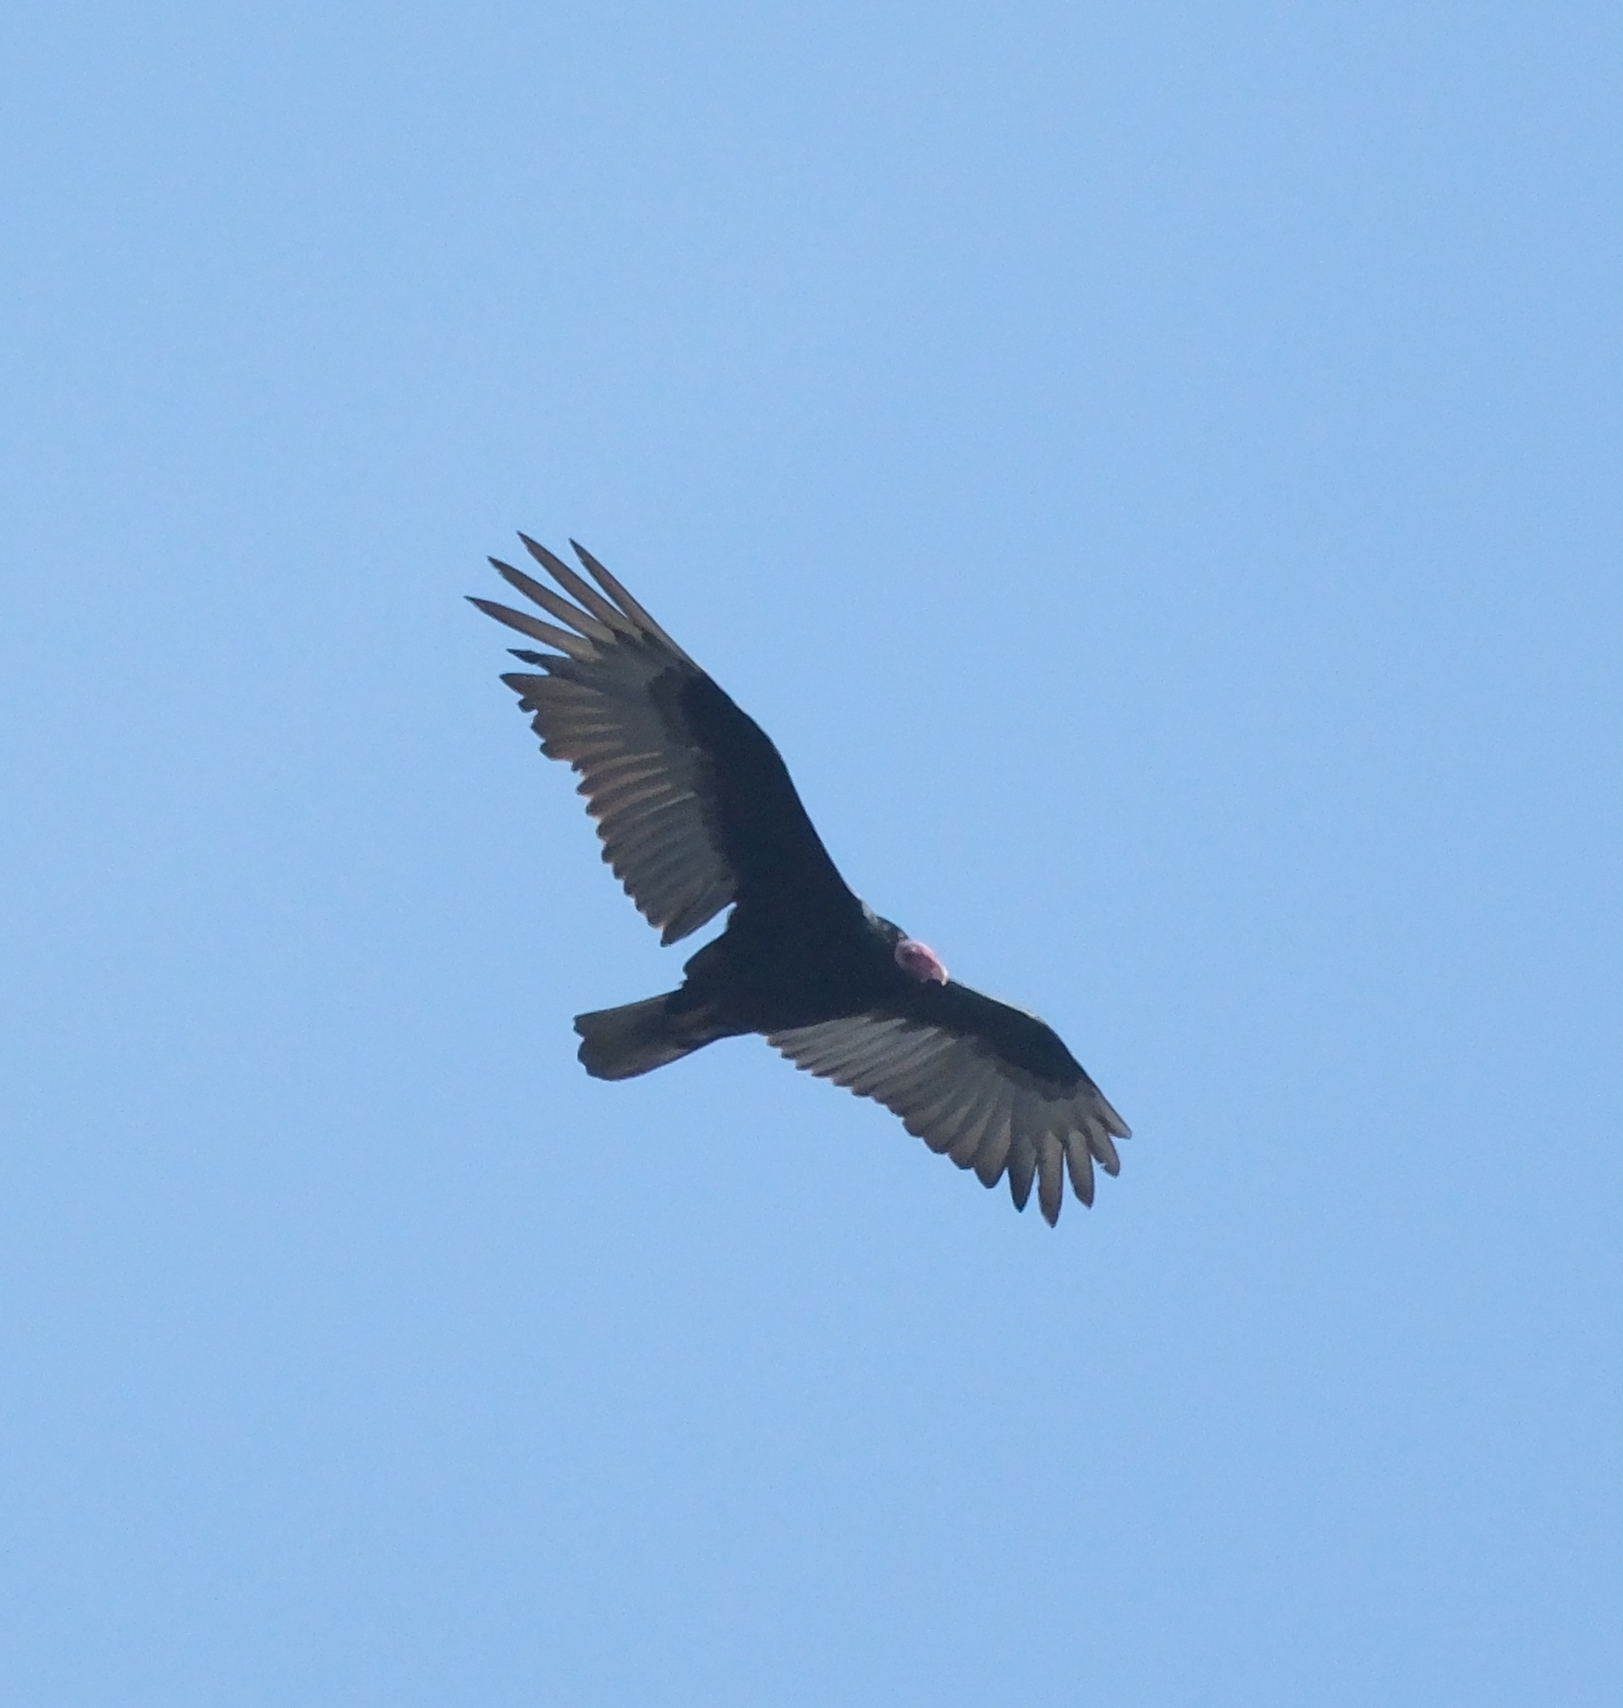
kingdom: Animalia
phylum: Chordata
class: Aves
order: Accipitriformes
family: Cathartidae
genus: Cathartes
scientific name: Cathartes aura
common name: Turkey vulture
